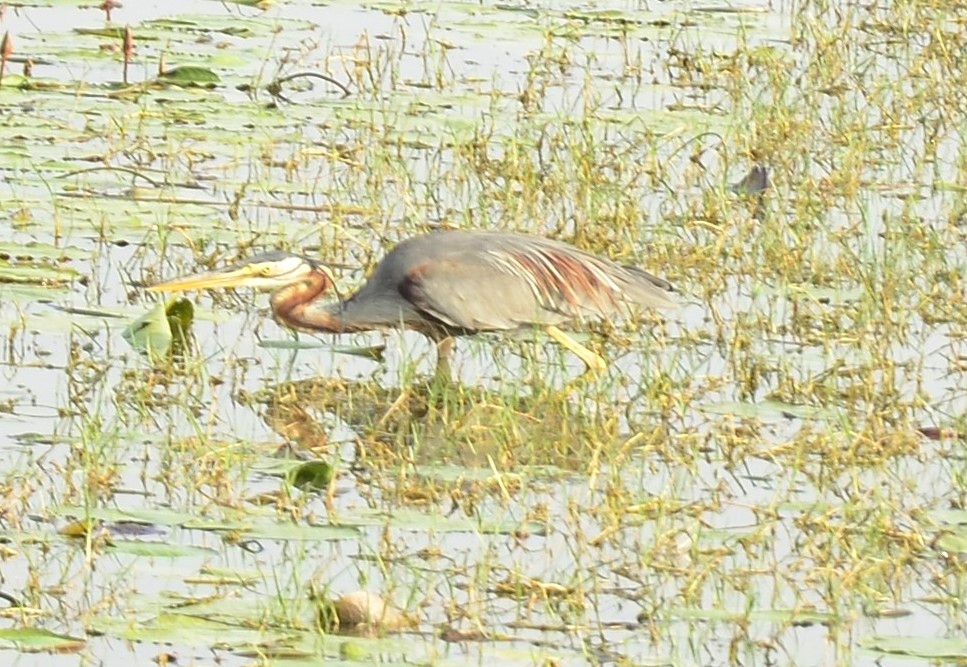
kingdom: Animalia
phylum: Chordata
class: Aves
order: Pelecaniformes
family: Ardeidae
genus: Ardea
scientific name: Ardea purpurea
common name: Purple heron
